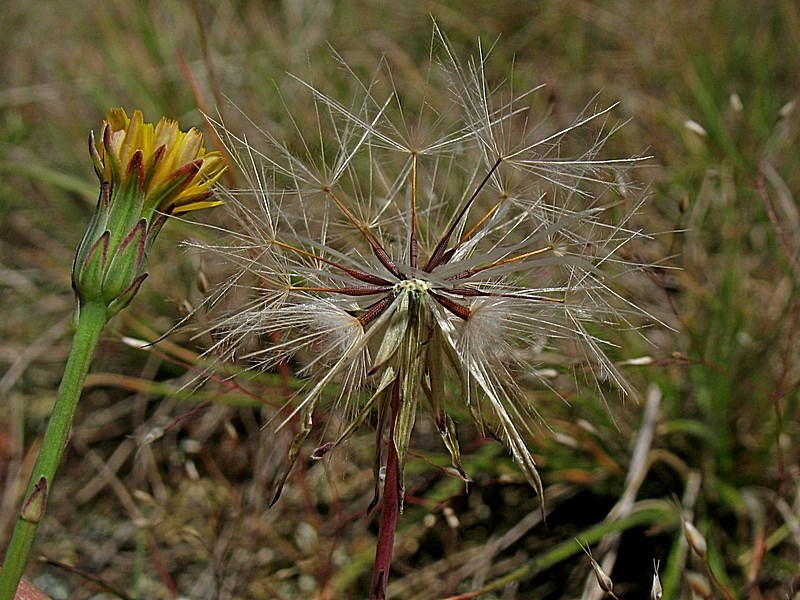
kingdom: Plantae
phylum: Tracheophyta
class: Magnoliopsida
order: Asterales
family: Asteraceae
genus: Hypochaeris
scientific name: Hypochaeris glabra
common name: Smooth catsear
